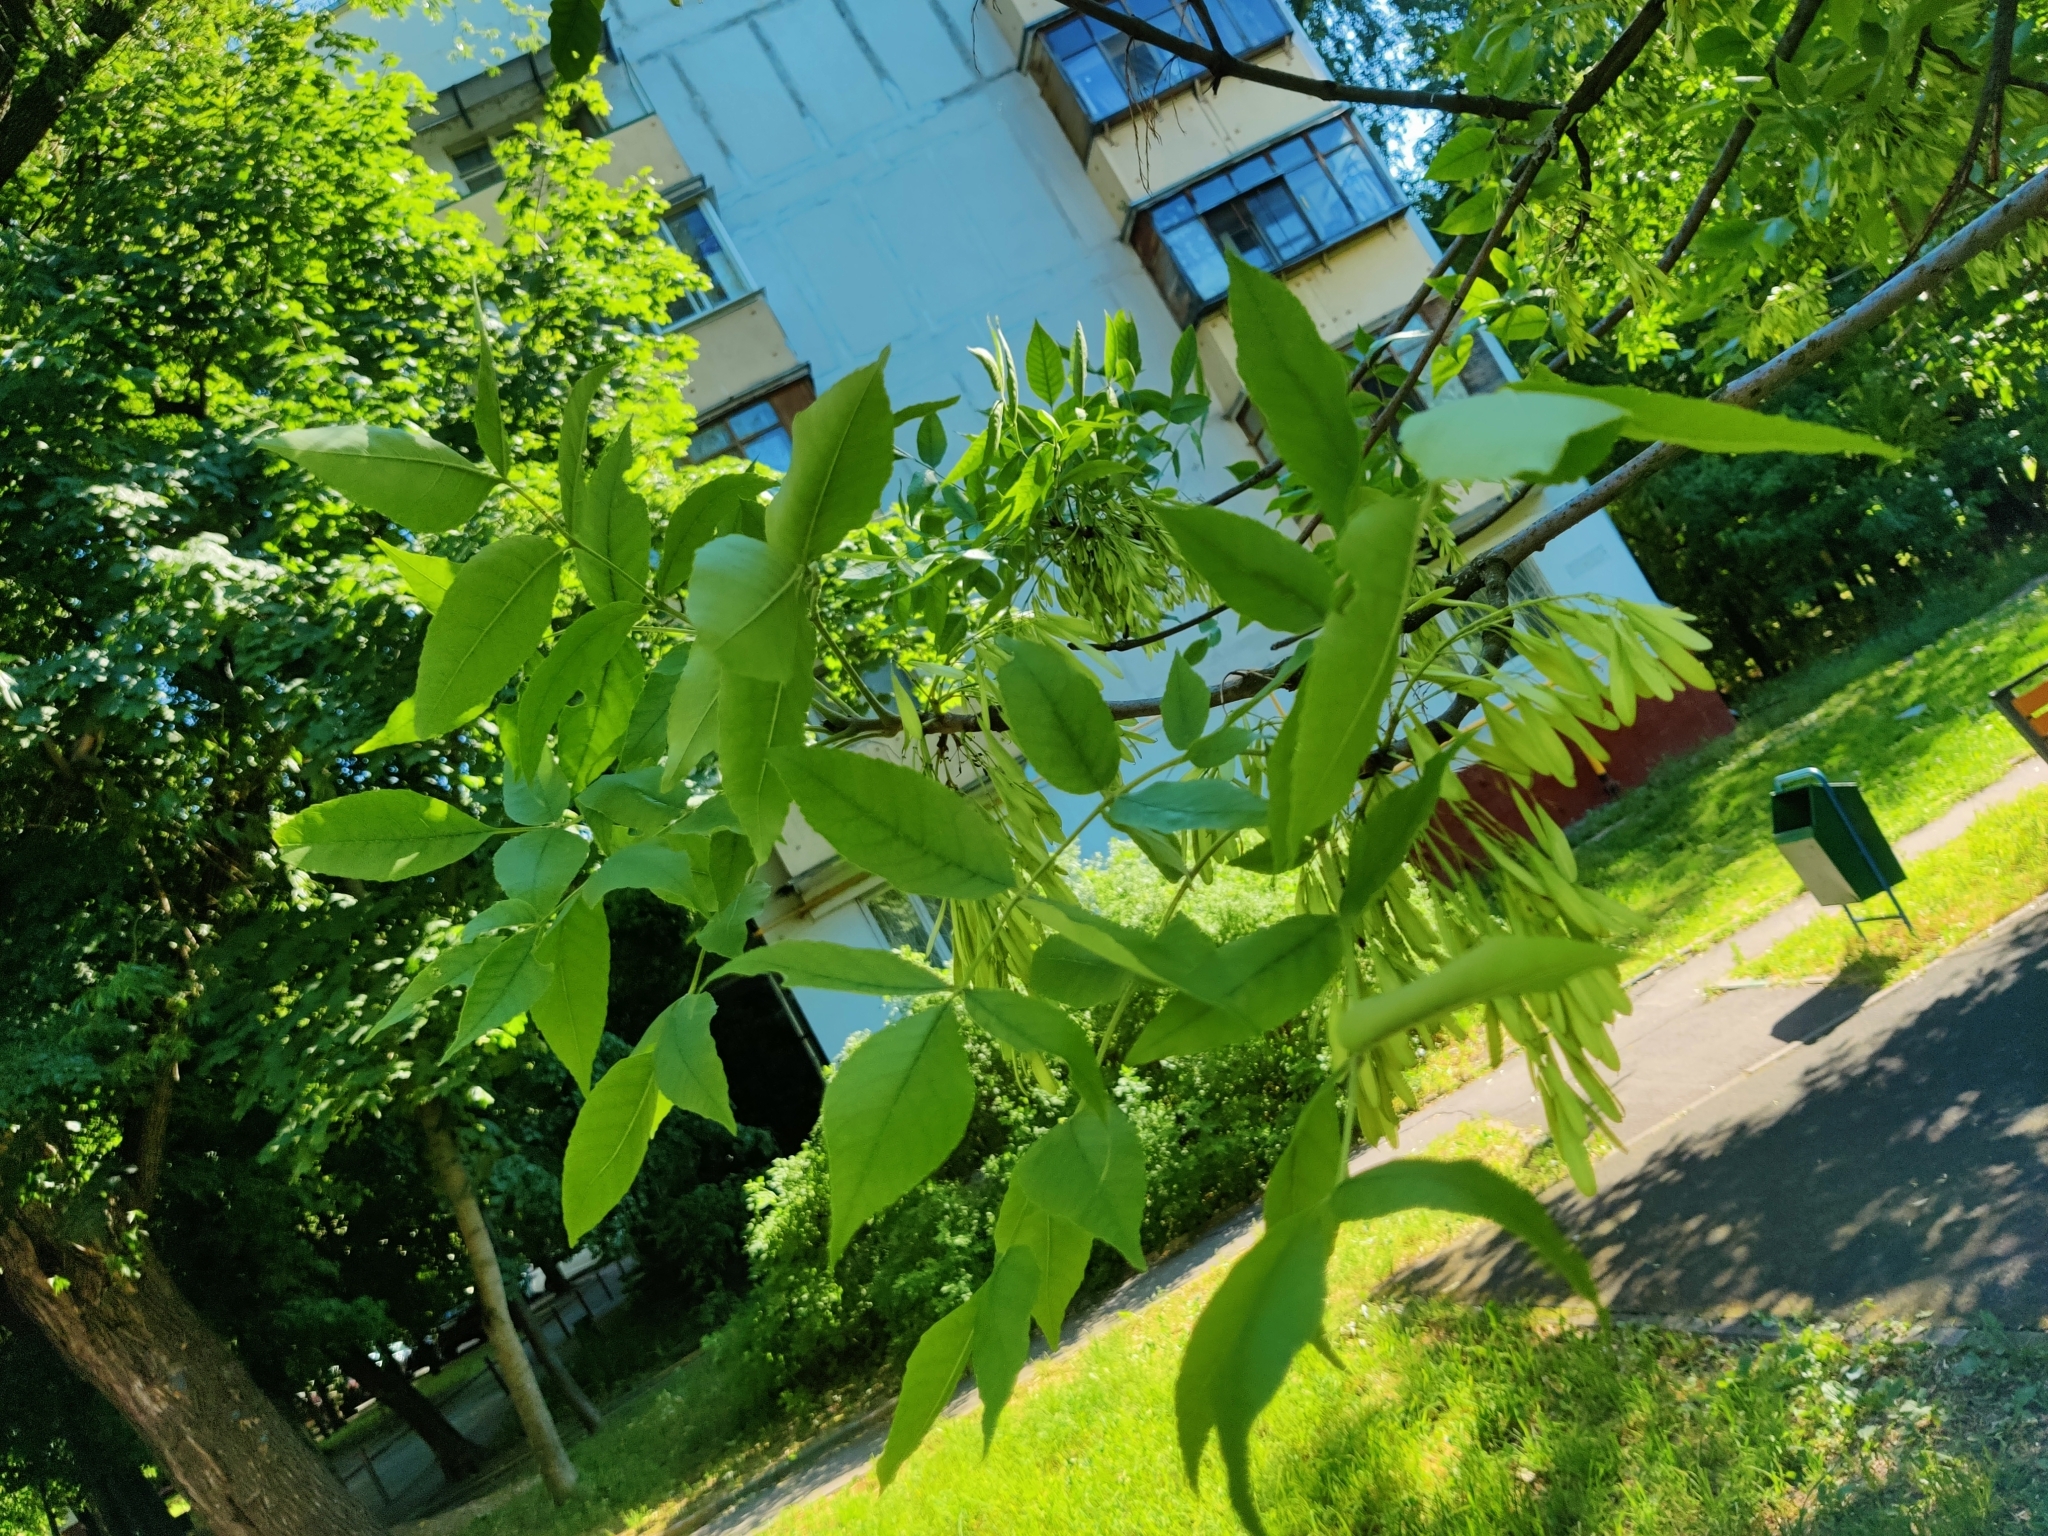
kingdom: Plantae
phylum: Tracheophyta
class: Magnoliopsida
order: Lamiales
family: Oleaceae
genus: Fraxinus
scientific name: Fraxinus pennsylvanica
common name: Green ash
